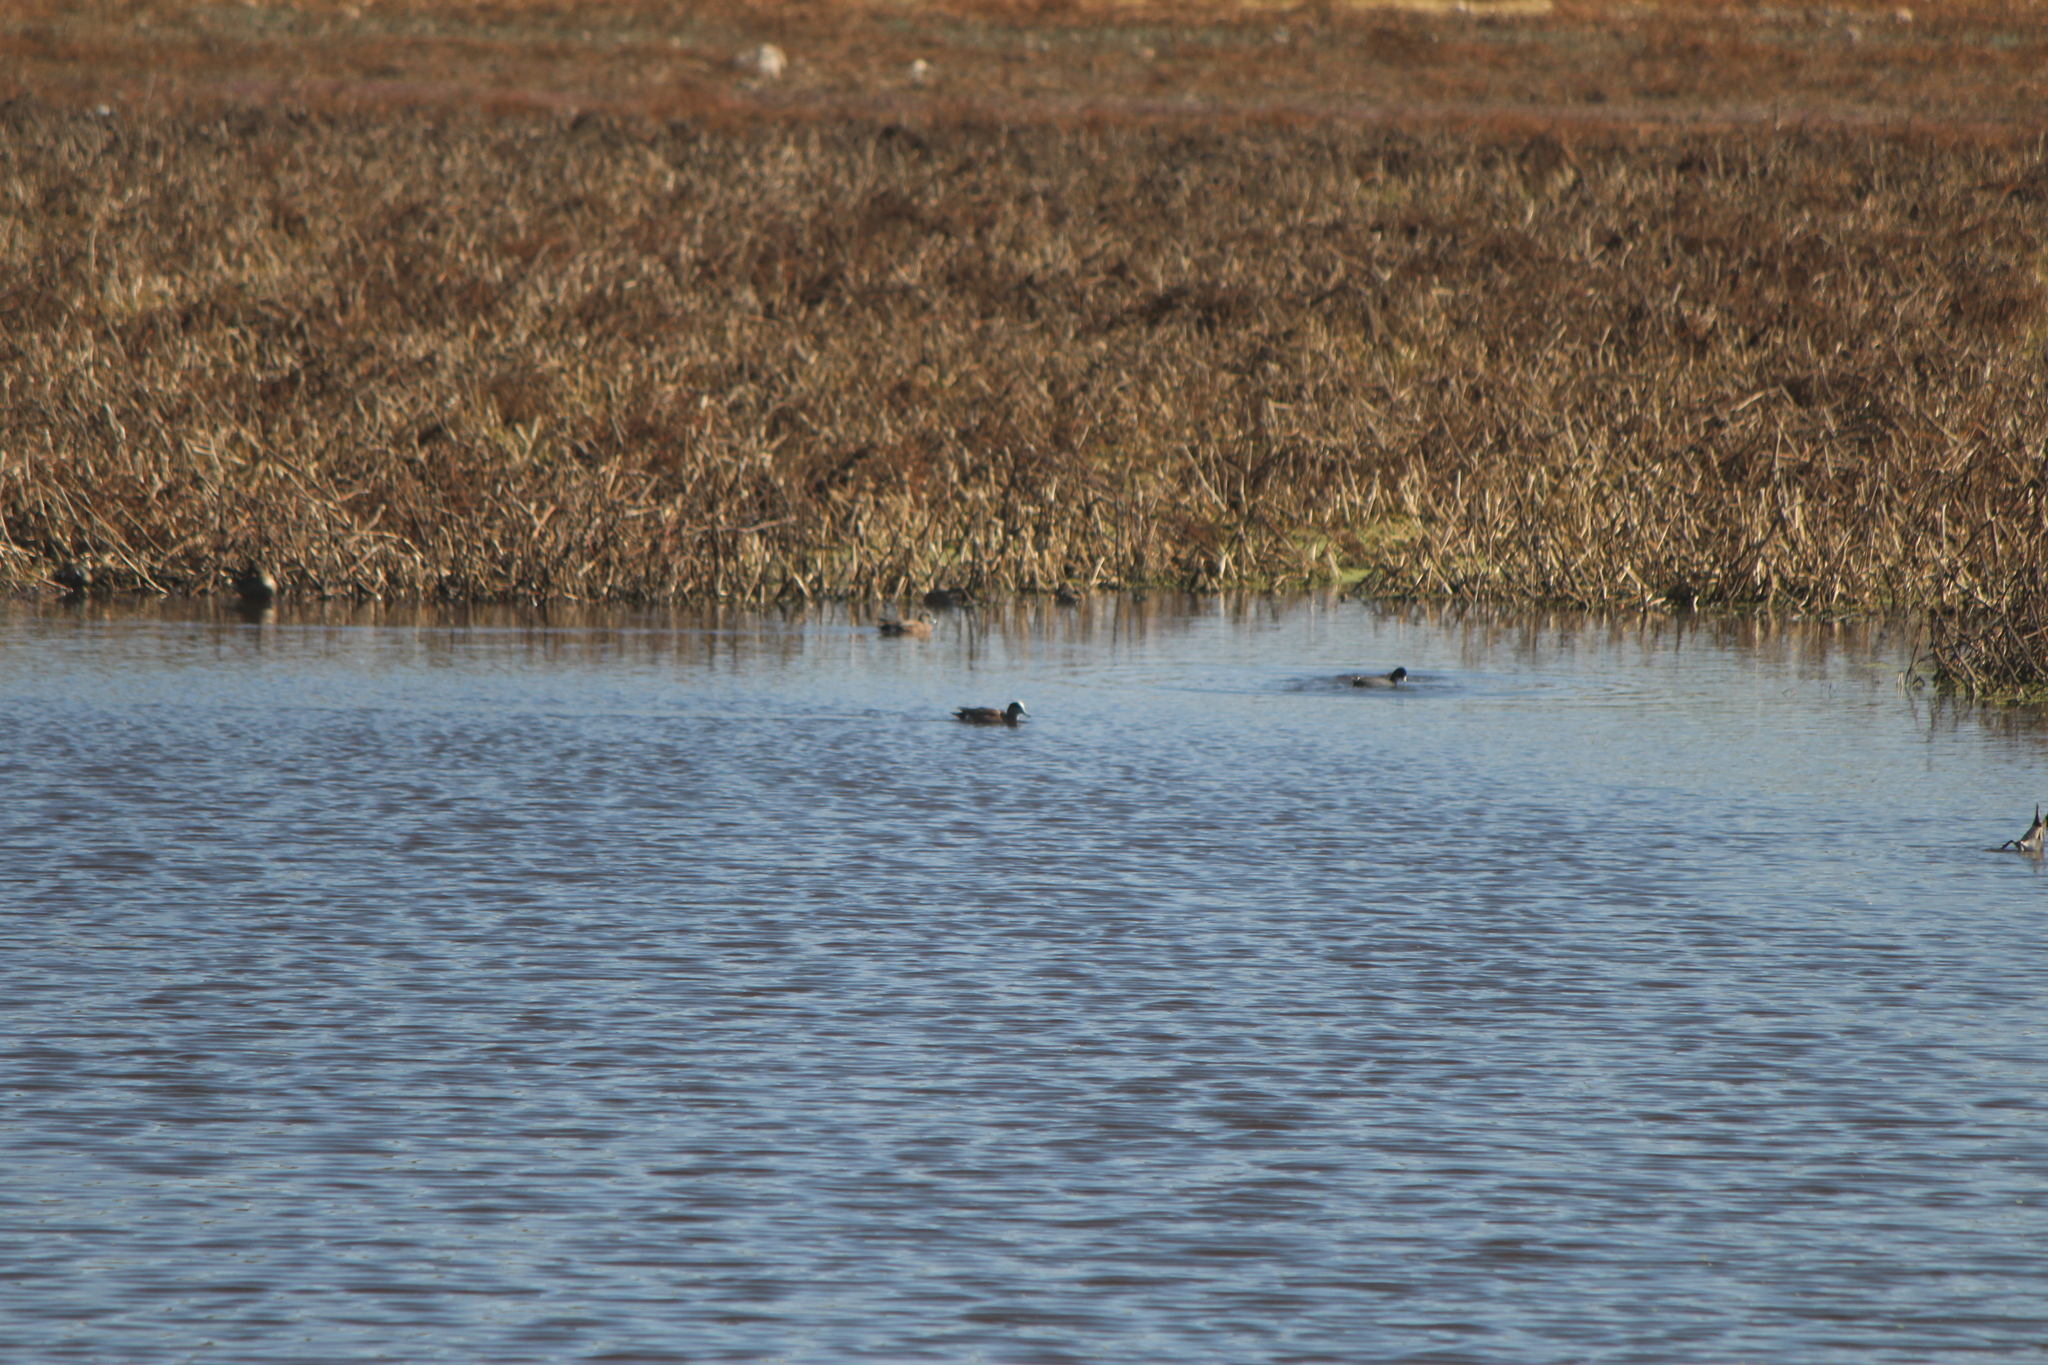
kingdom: Animalia
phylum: Chordata
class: Aves
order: Anseriformes
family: Anatidae
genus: Mareca
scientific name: Mareca americana
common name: American wigeon
